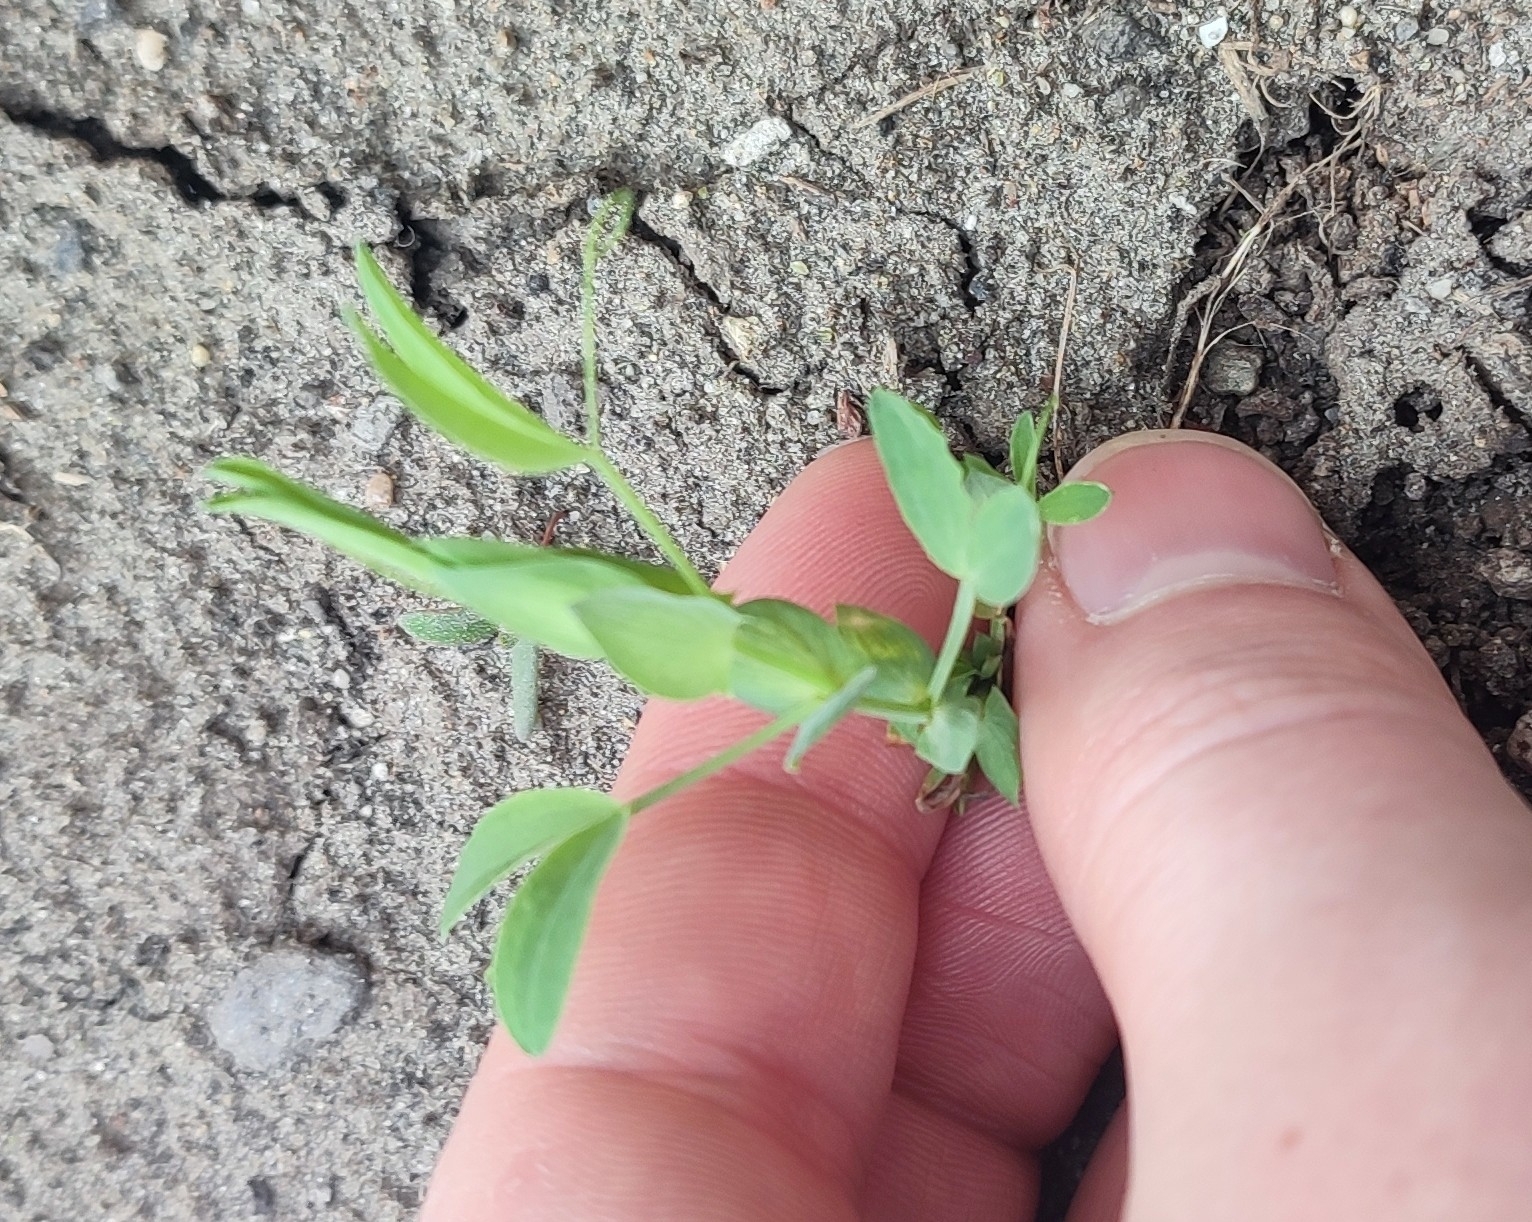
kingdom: Plantae
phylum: Tracheophyta
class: Magnoliopsida
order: Fabales
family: Fabaceae
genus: Lathyrus
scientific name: Lathyrus pratensis
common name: Meadow vetchling
